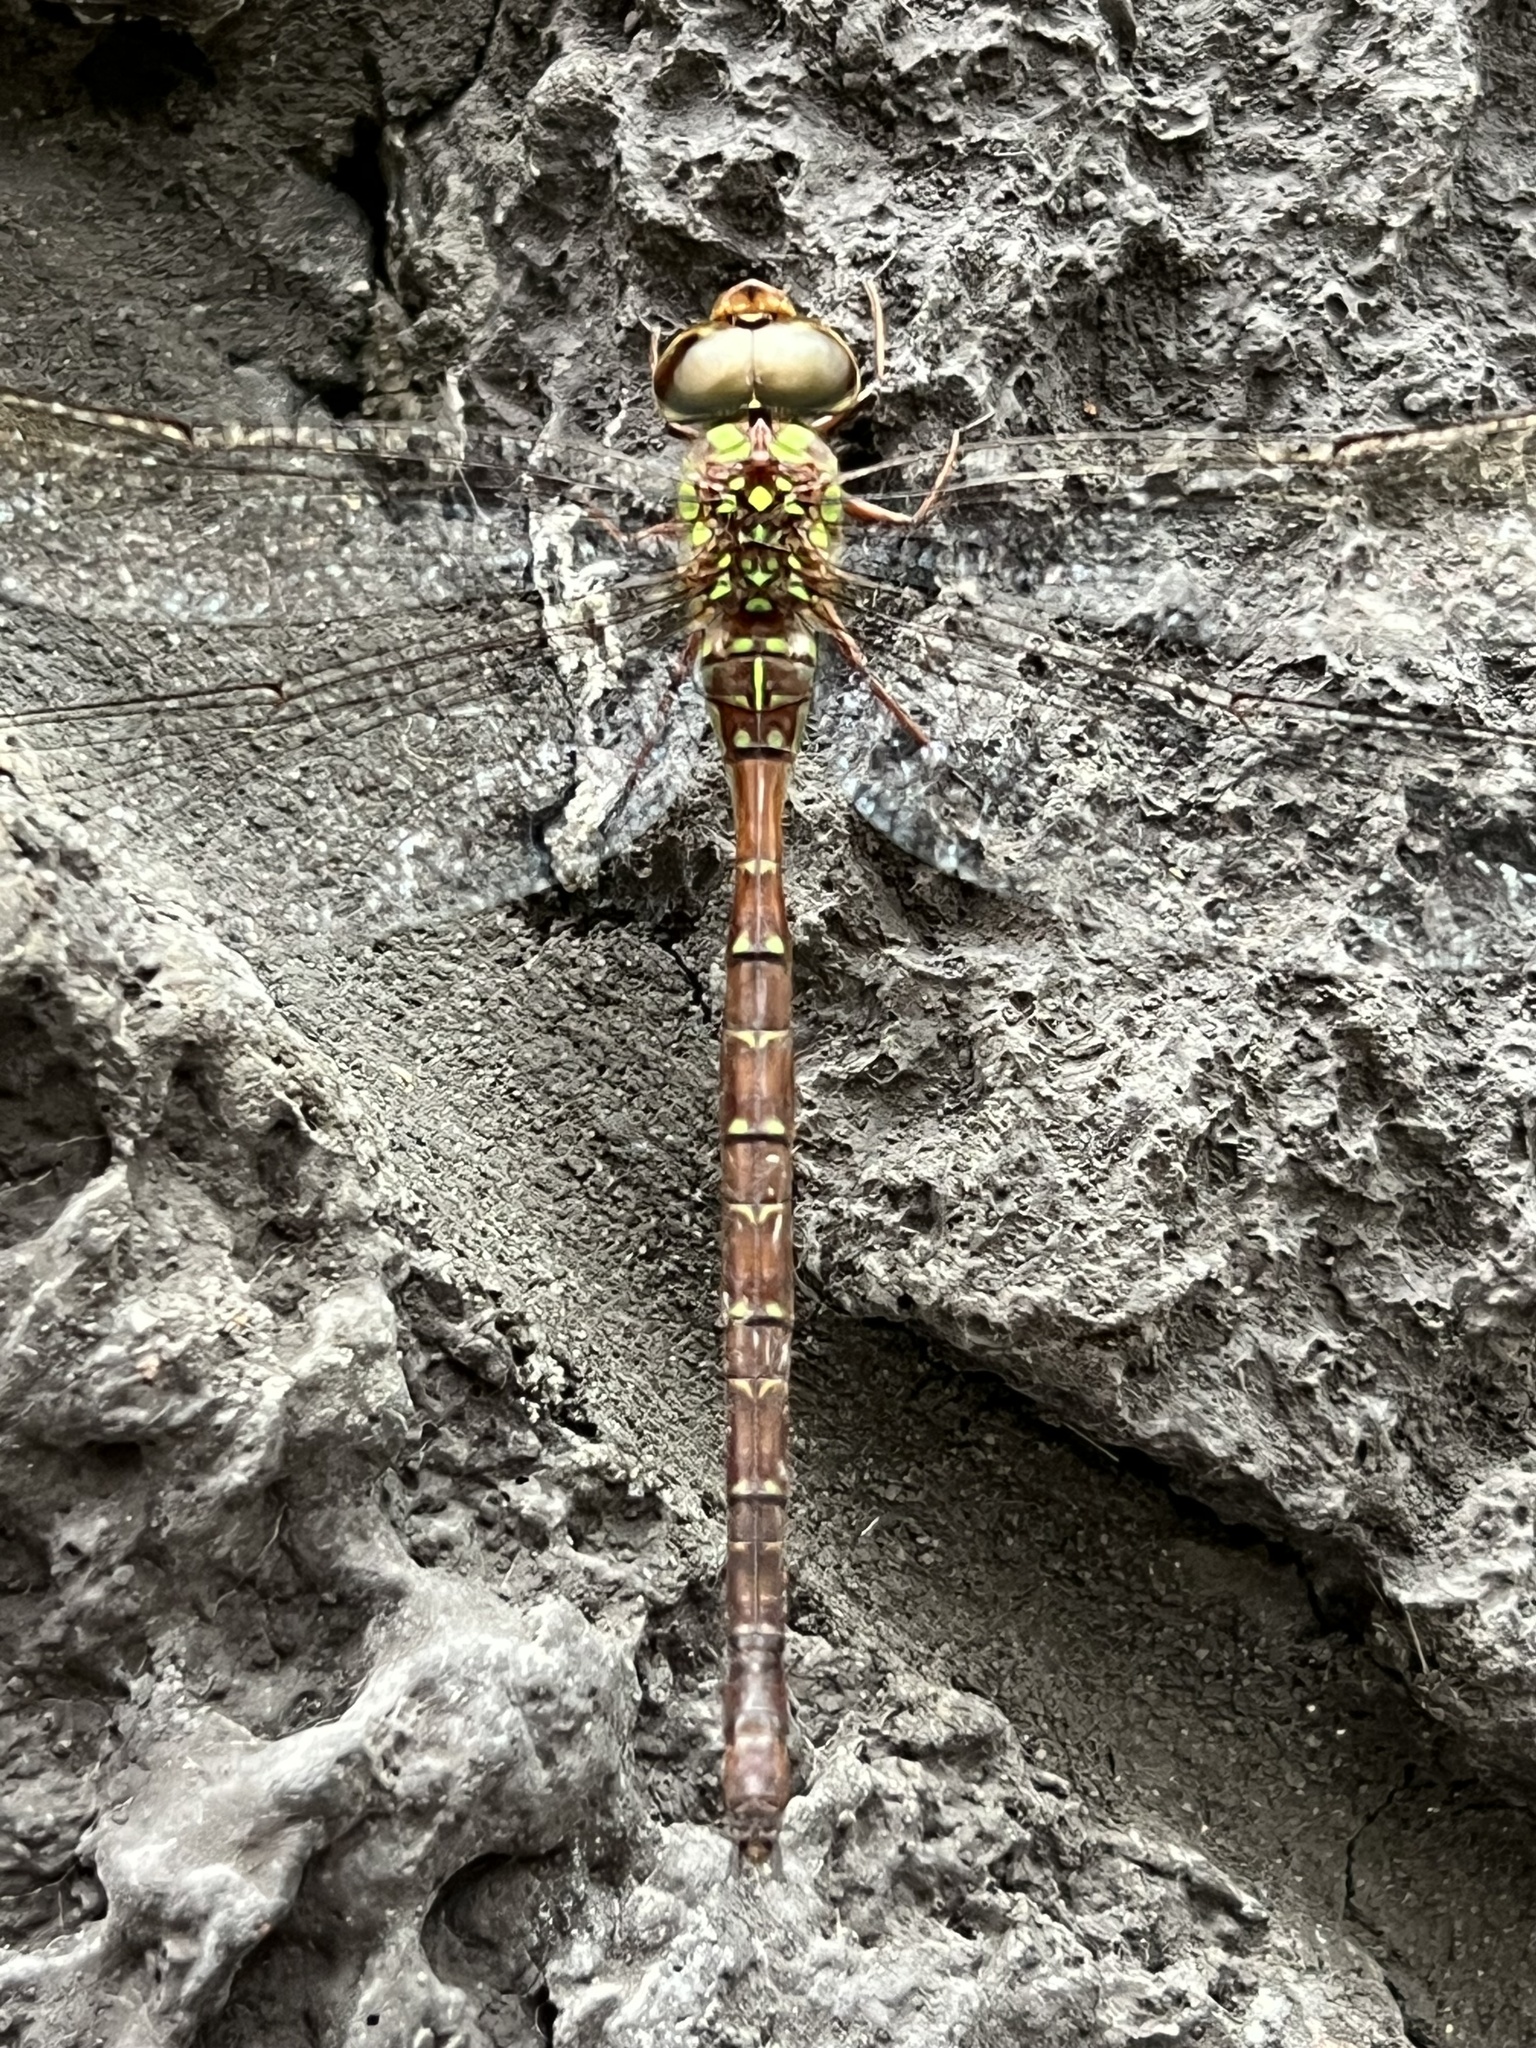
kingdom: Animalia
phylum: Arthropoda
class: Insecta
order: Odonata
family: Aeshnidae
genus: Triacanthagyna
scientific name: Triacanthagyna trifida
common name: Phantom darner
